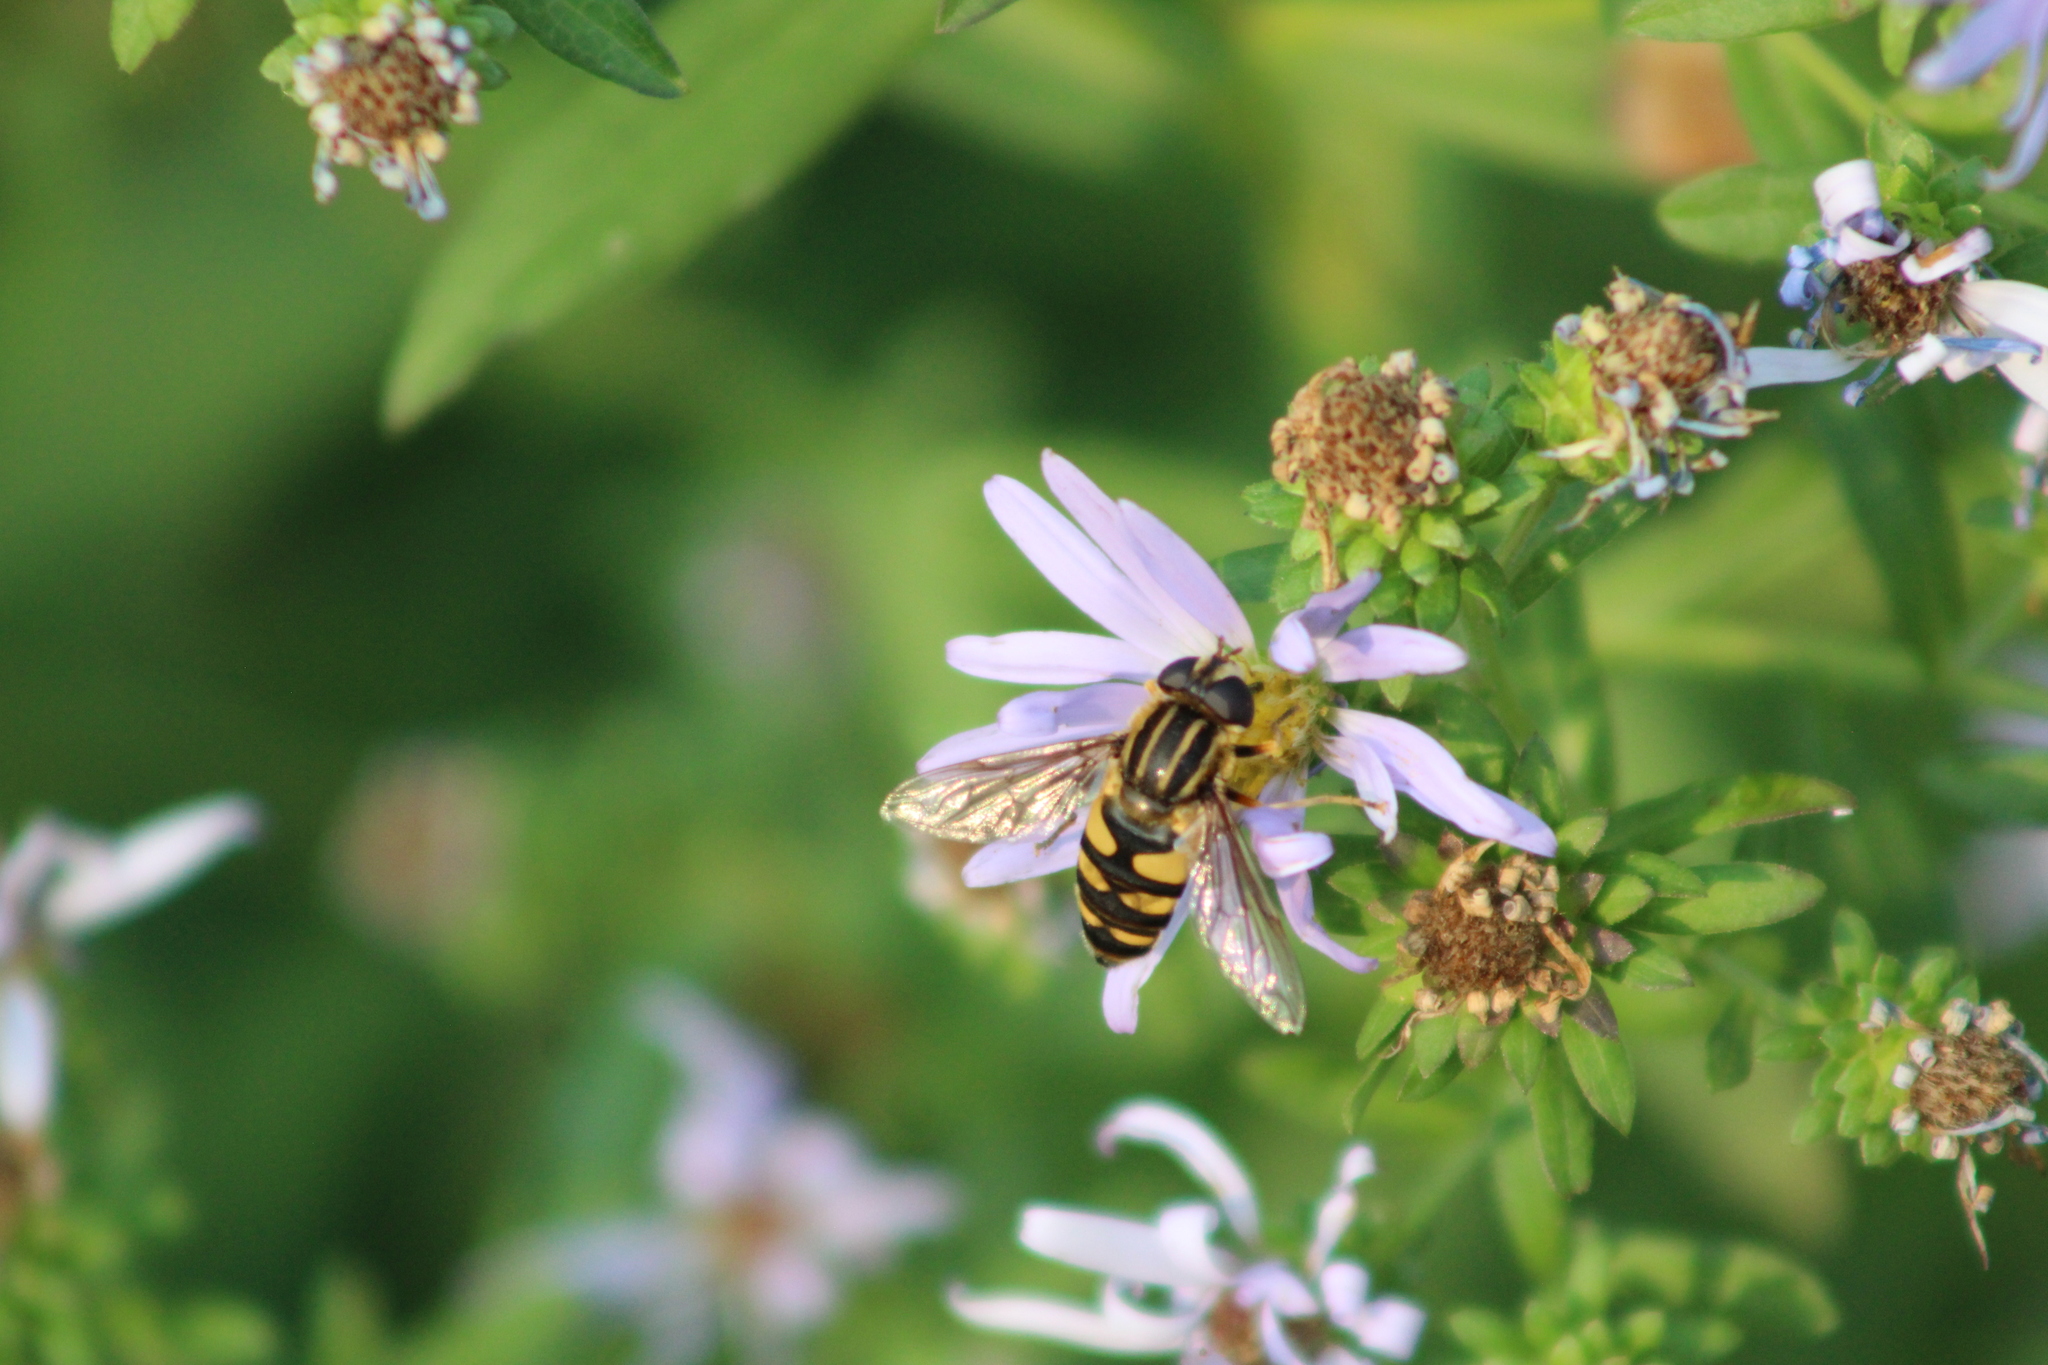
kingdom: Animalia
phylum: Arthropoda
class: Insecta
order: Diptera
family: Syrphidae
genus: Helophilus
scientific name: Helophilus fasciatus
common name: Narrow-headed marsh fly
